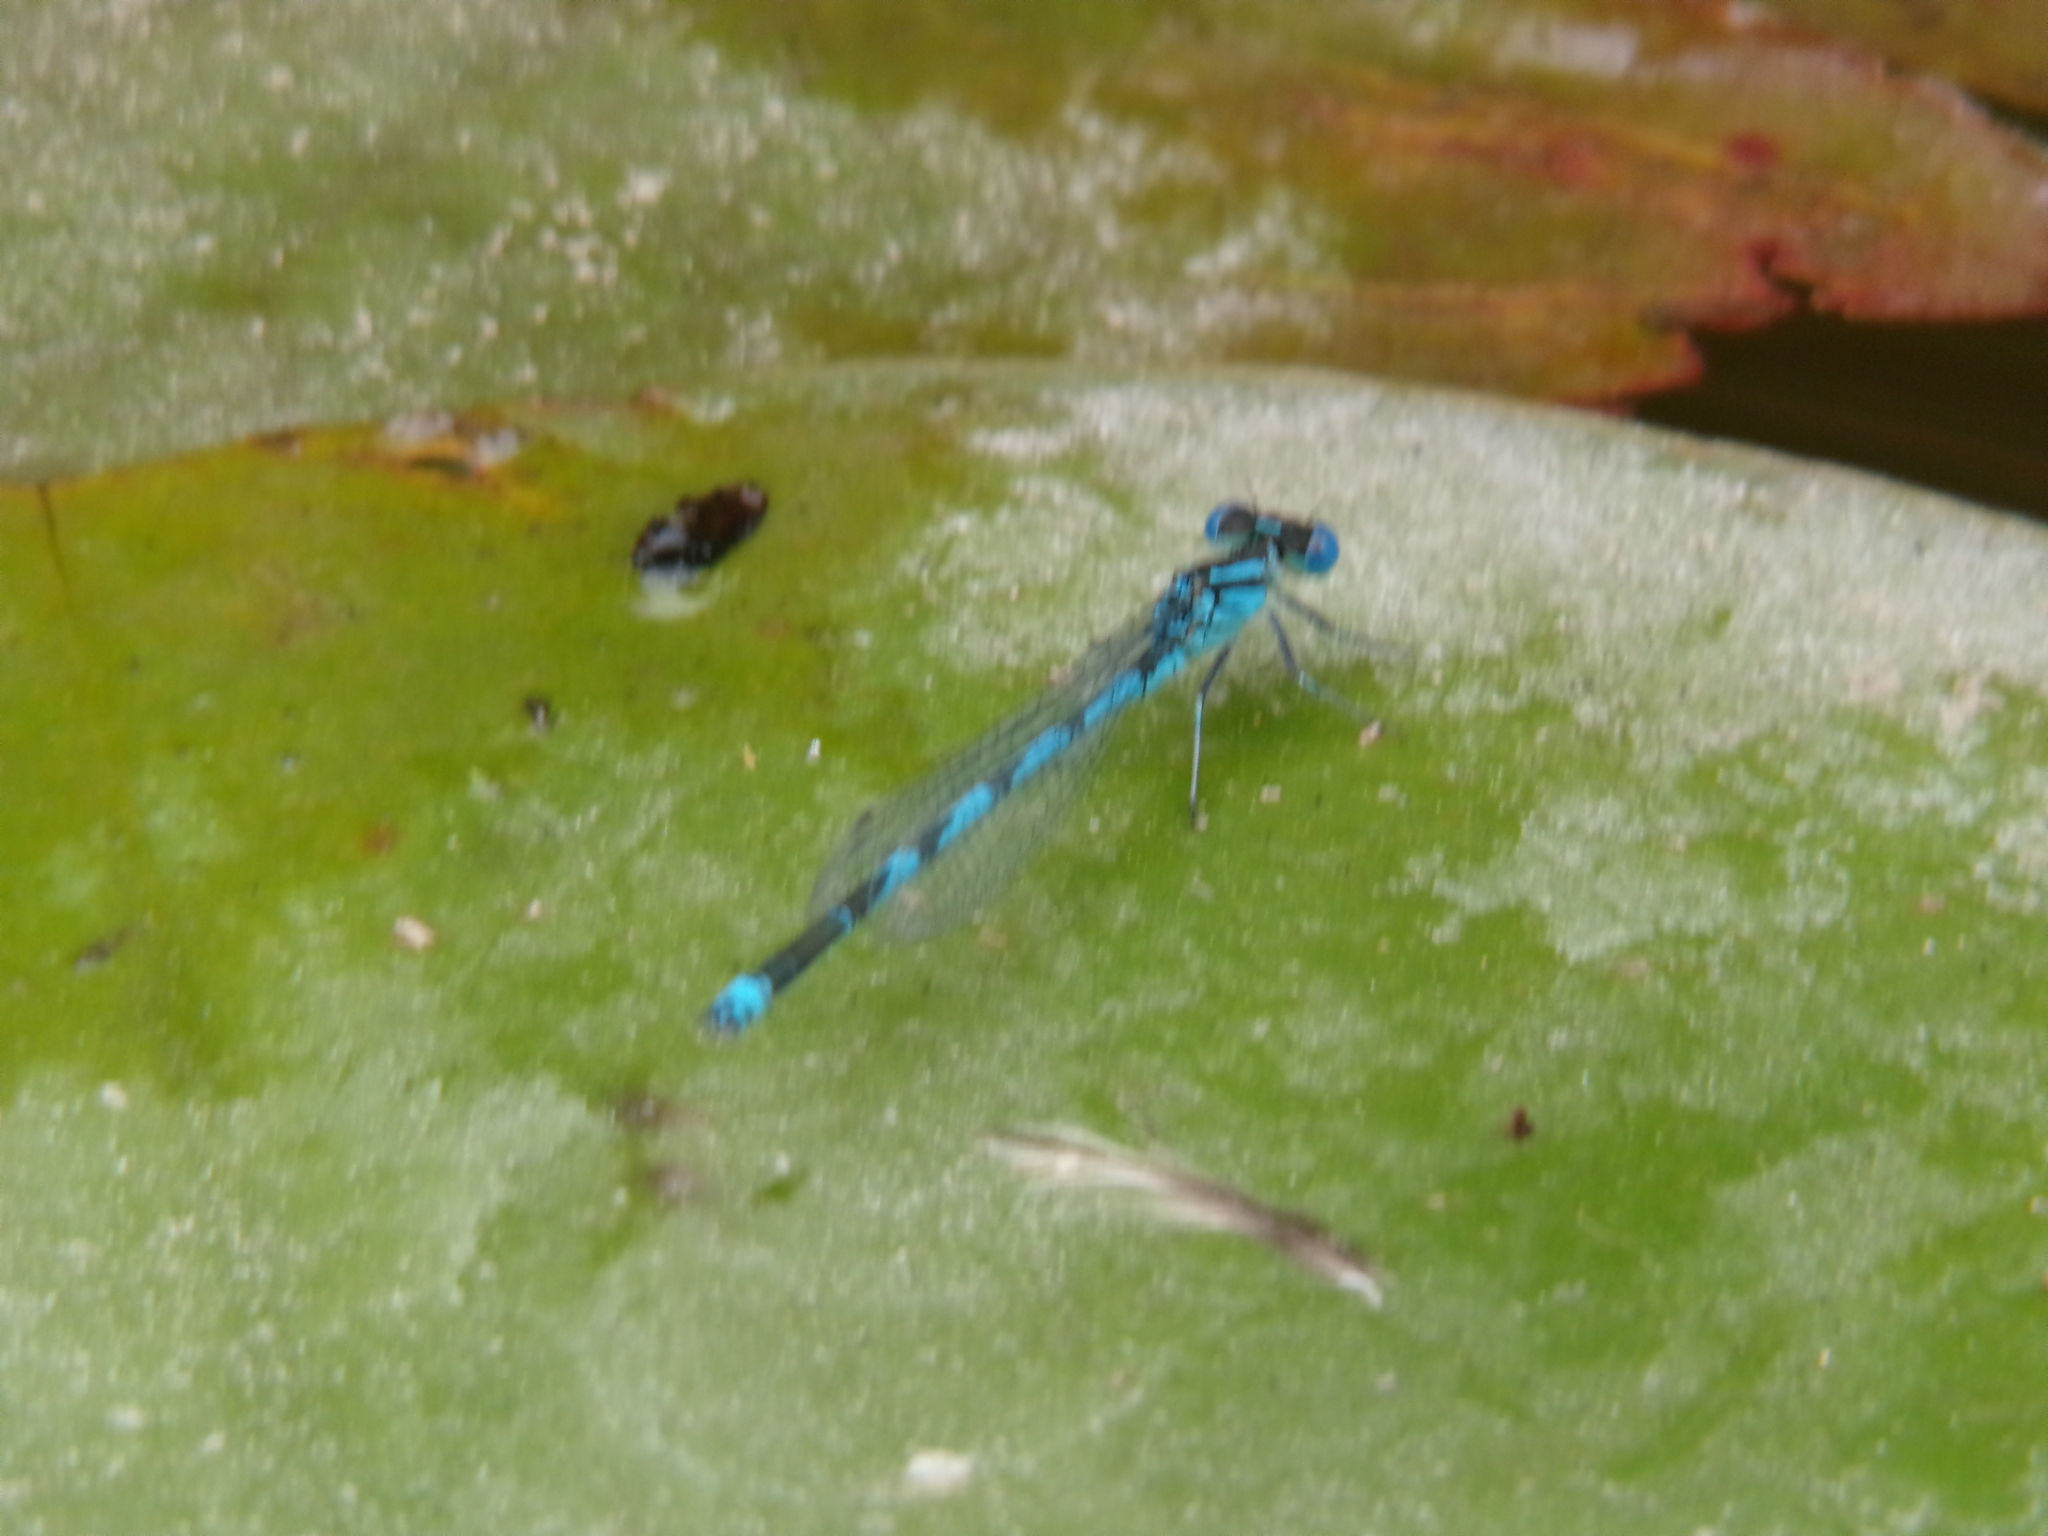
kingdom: Animalia
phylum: Arthropoda
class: Insecta
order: Odonata
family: Coenagrionidae
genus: Erythromma
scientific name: Erythromma lindenii
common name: Blue-eye
